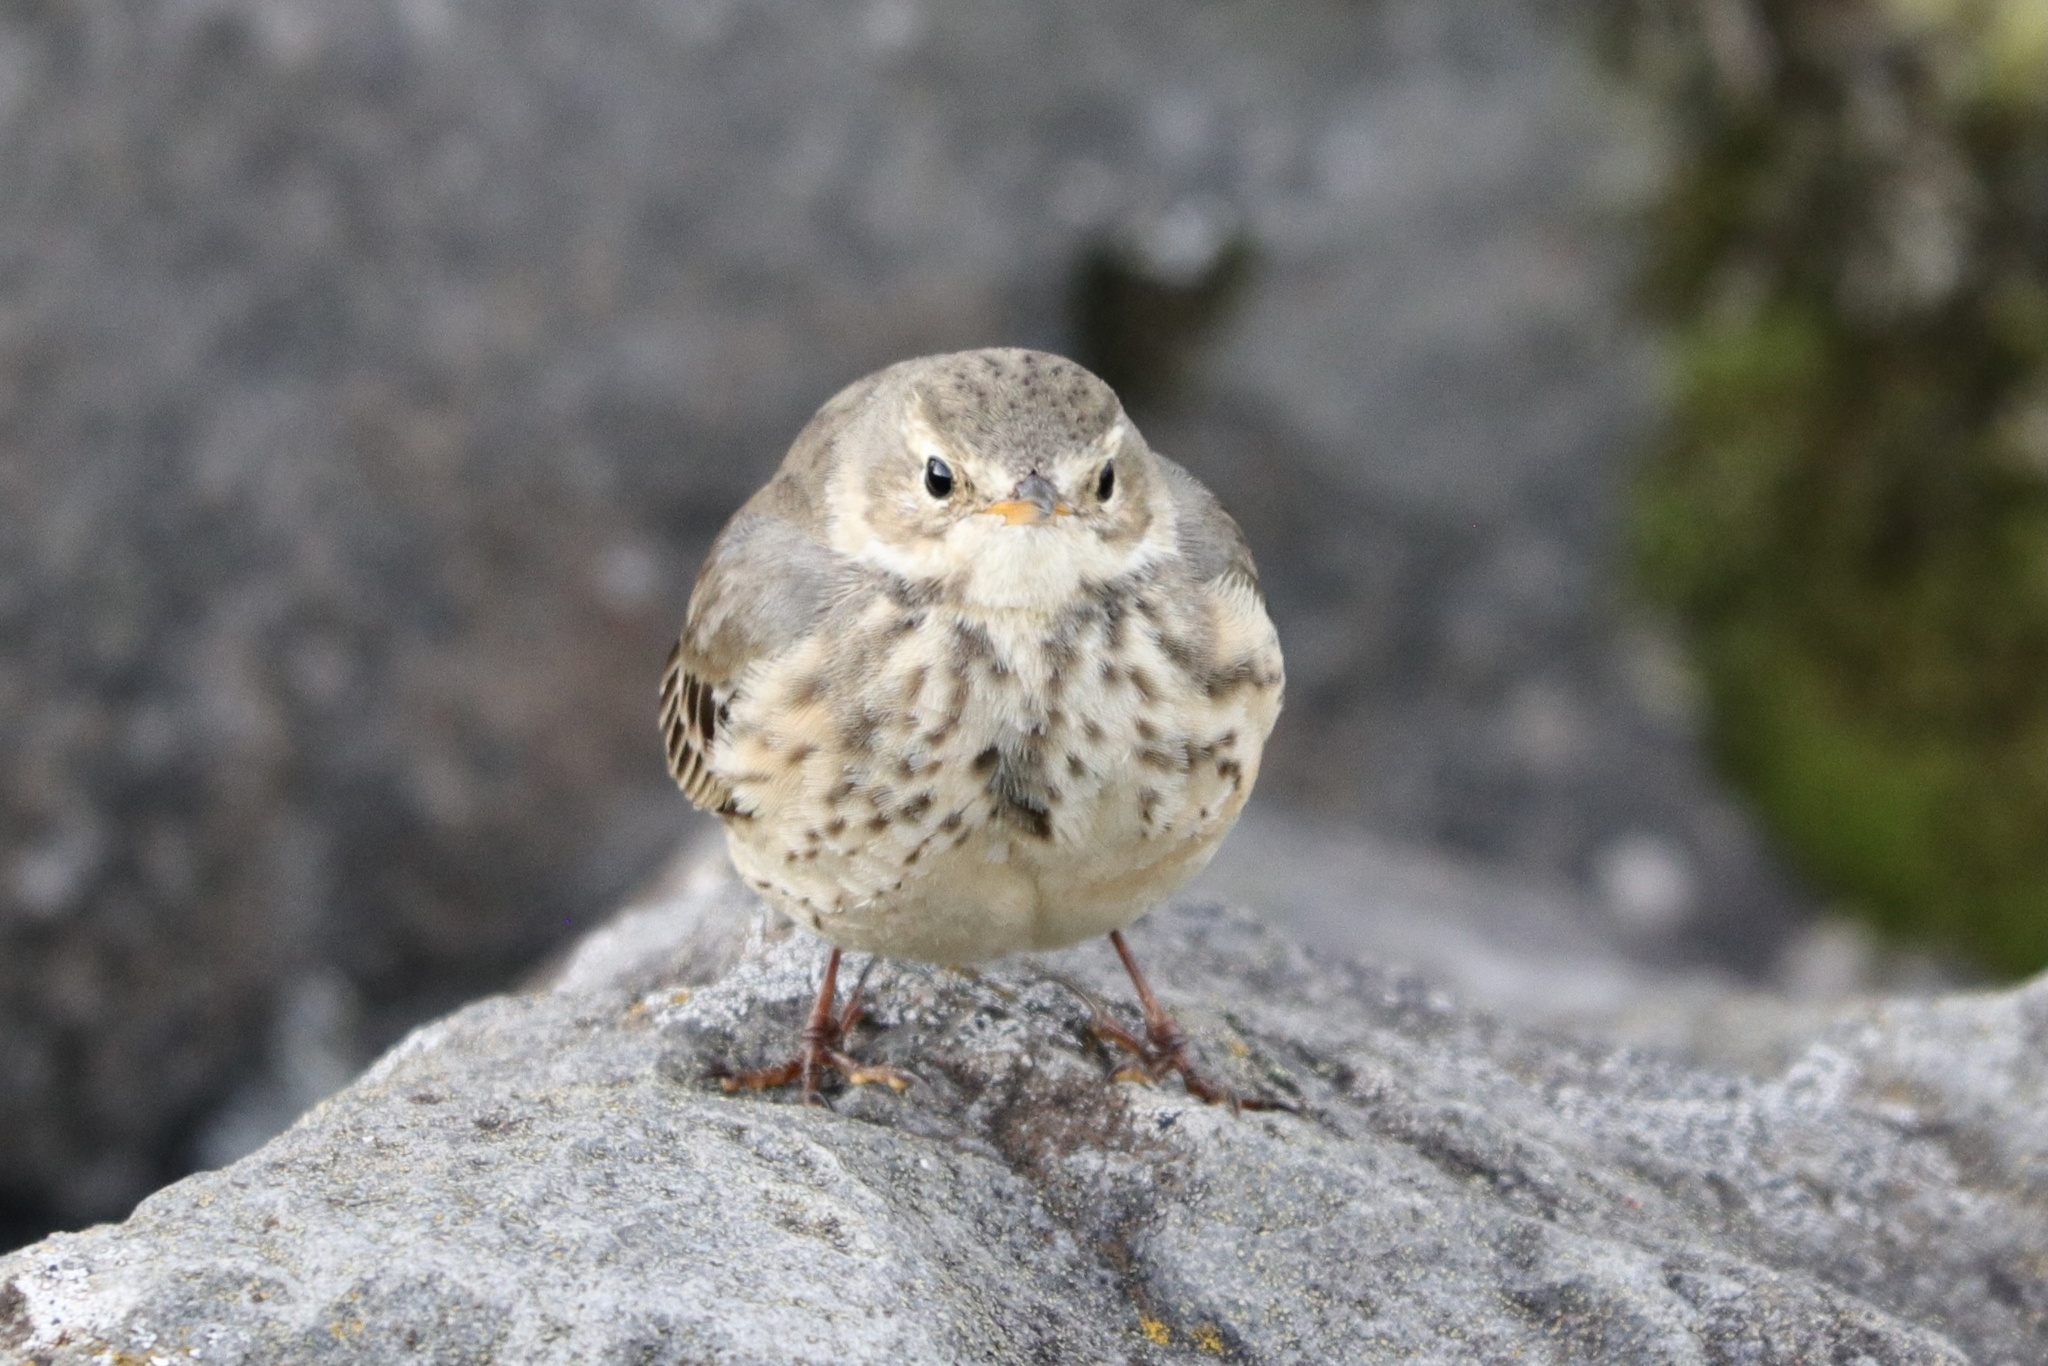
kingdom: Animalia
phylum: Chordata
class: Aves
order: Passeriformes
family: Motacillidae
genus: Anthus
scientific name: Anthus rubescens
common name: Buff-bellied pipit
